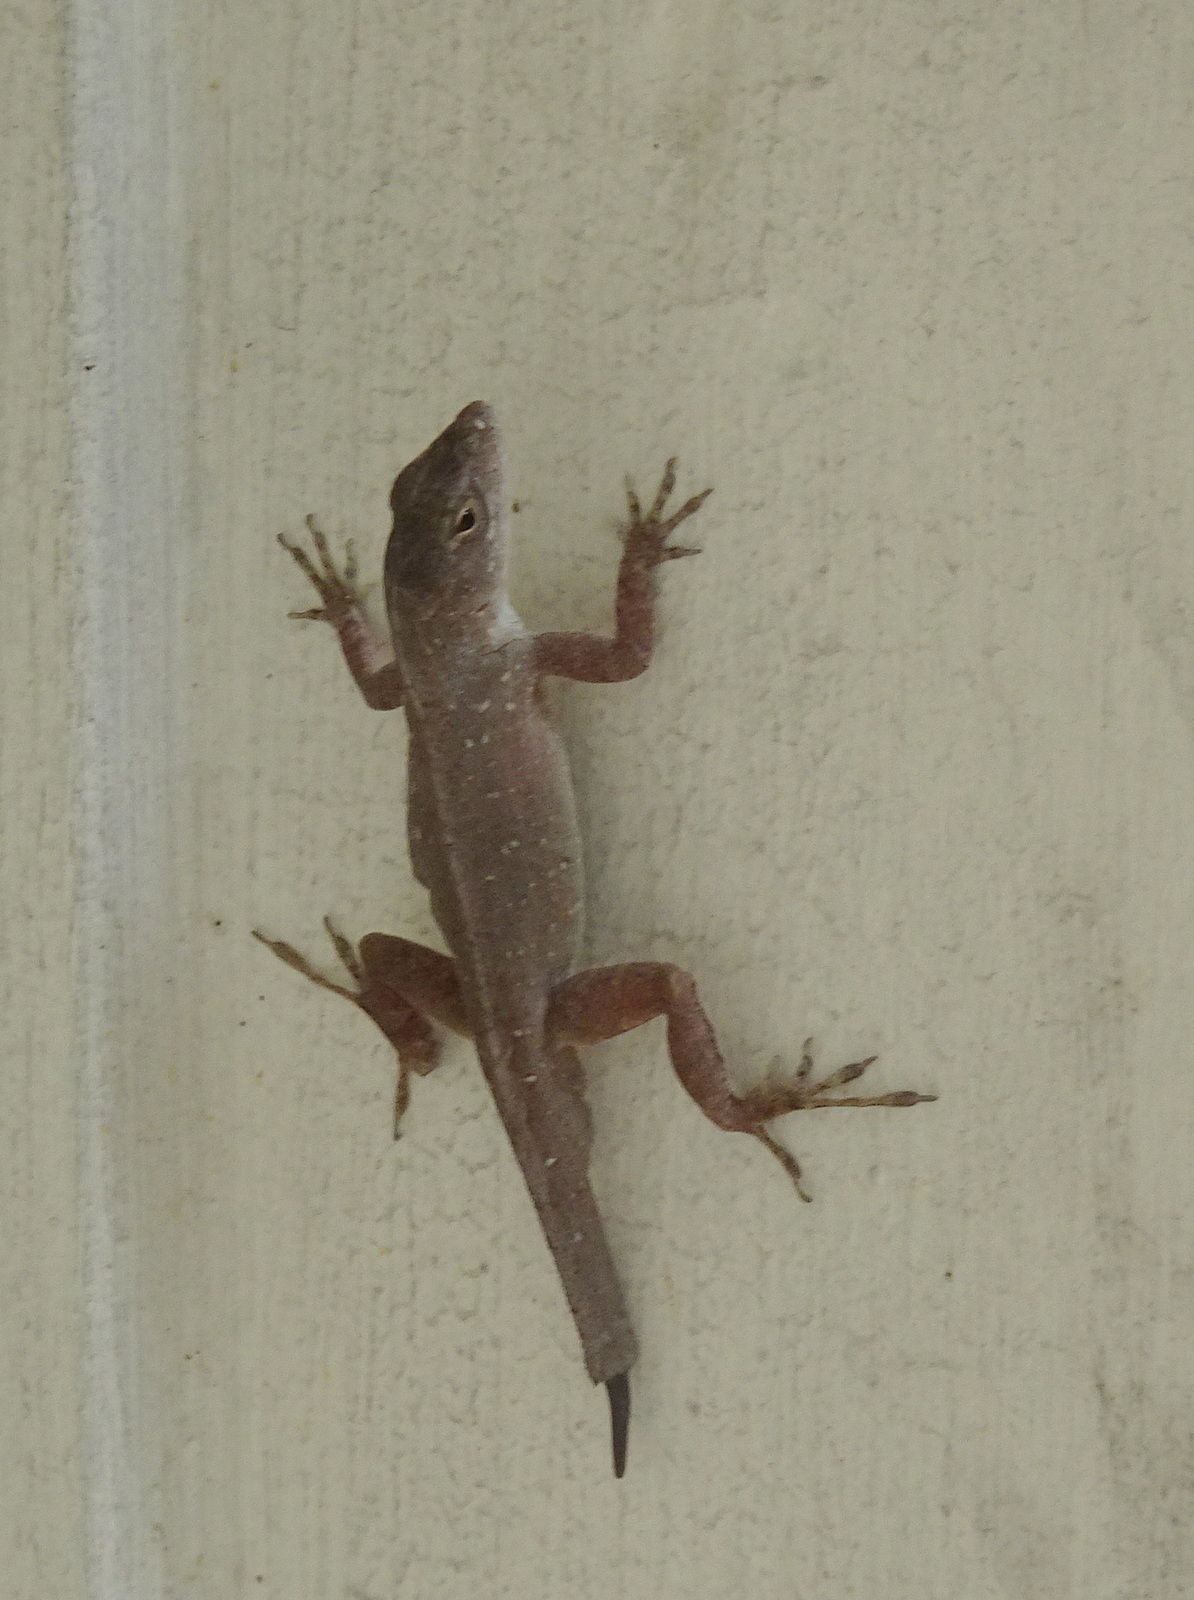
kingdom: Animalia
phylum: Chordata
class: Squamata
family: Dactyloidae
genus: Anolis
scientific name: Anolis sagrei
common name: Brown anole
